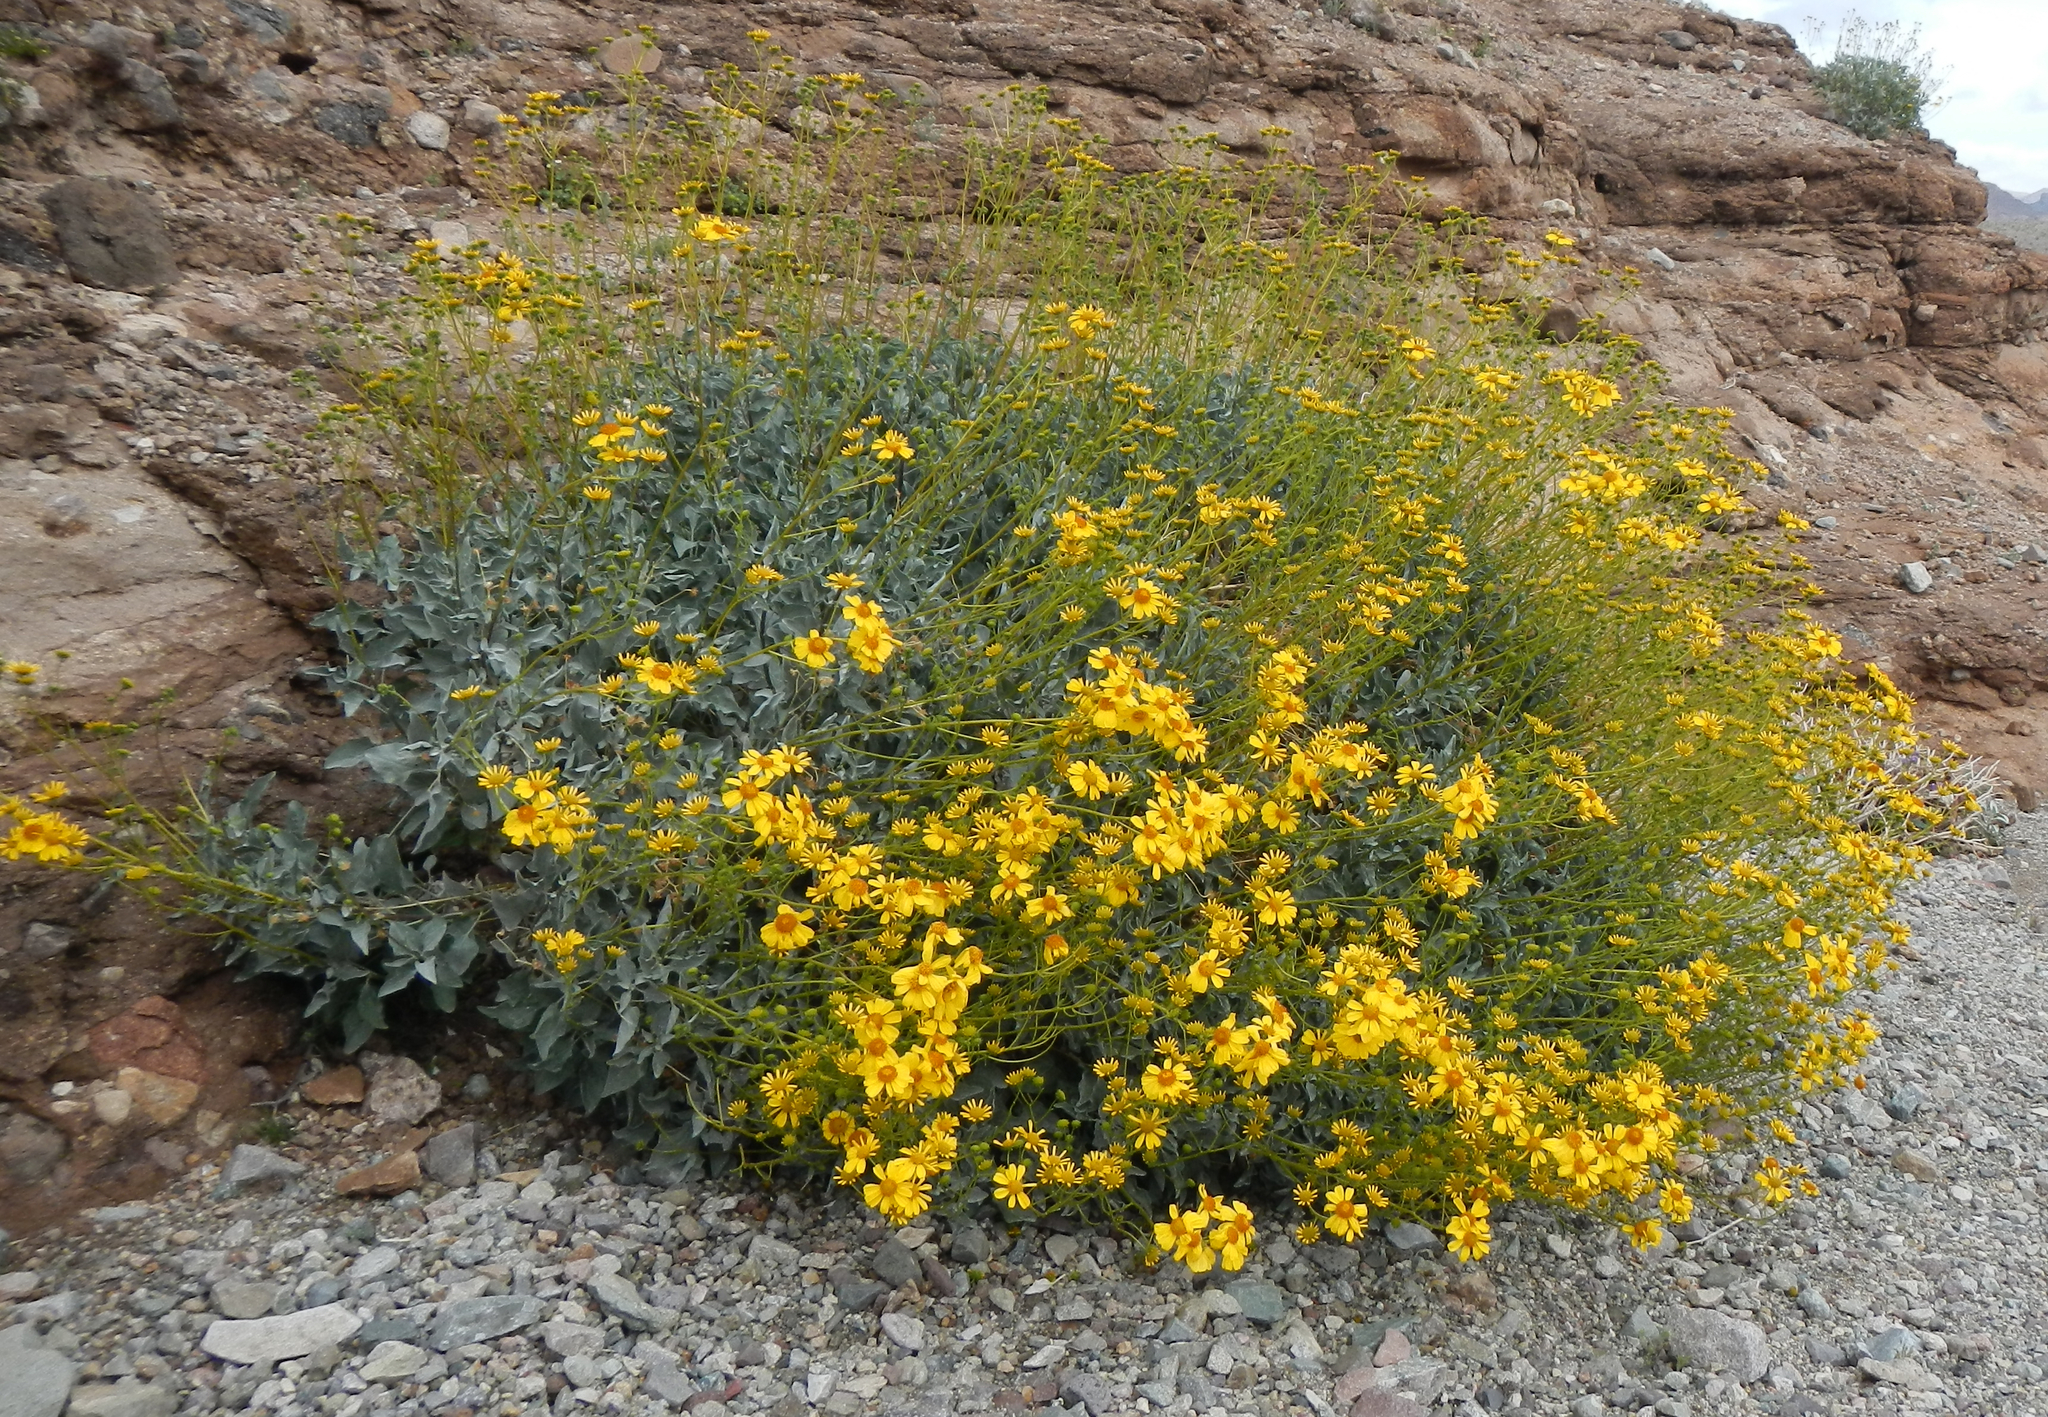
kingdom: Plantae
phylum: Tracheophyta
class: Magnoliopsida
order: Asterales
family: Asteraceae
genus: Encelia
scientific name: Encelia farinosa
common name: Brittlebush
